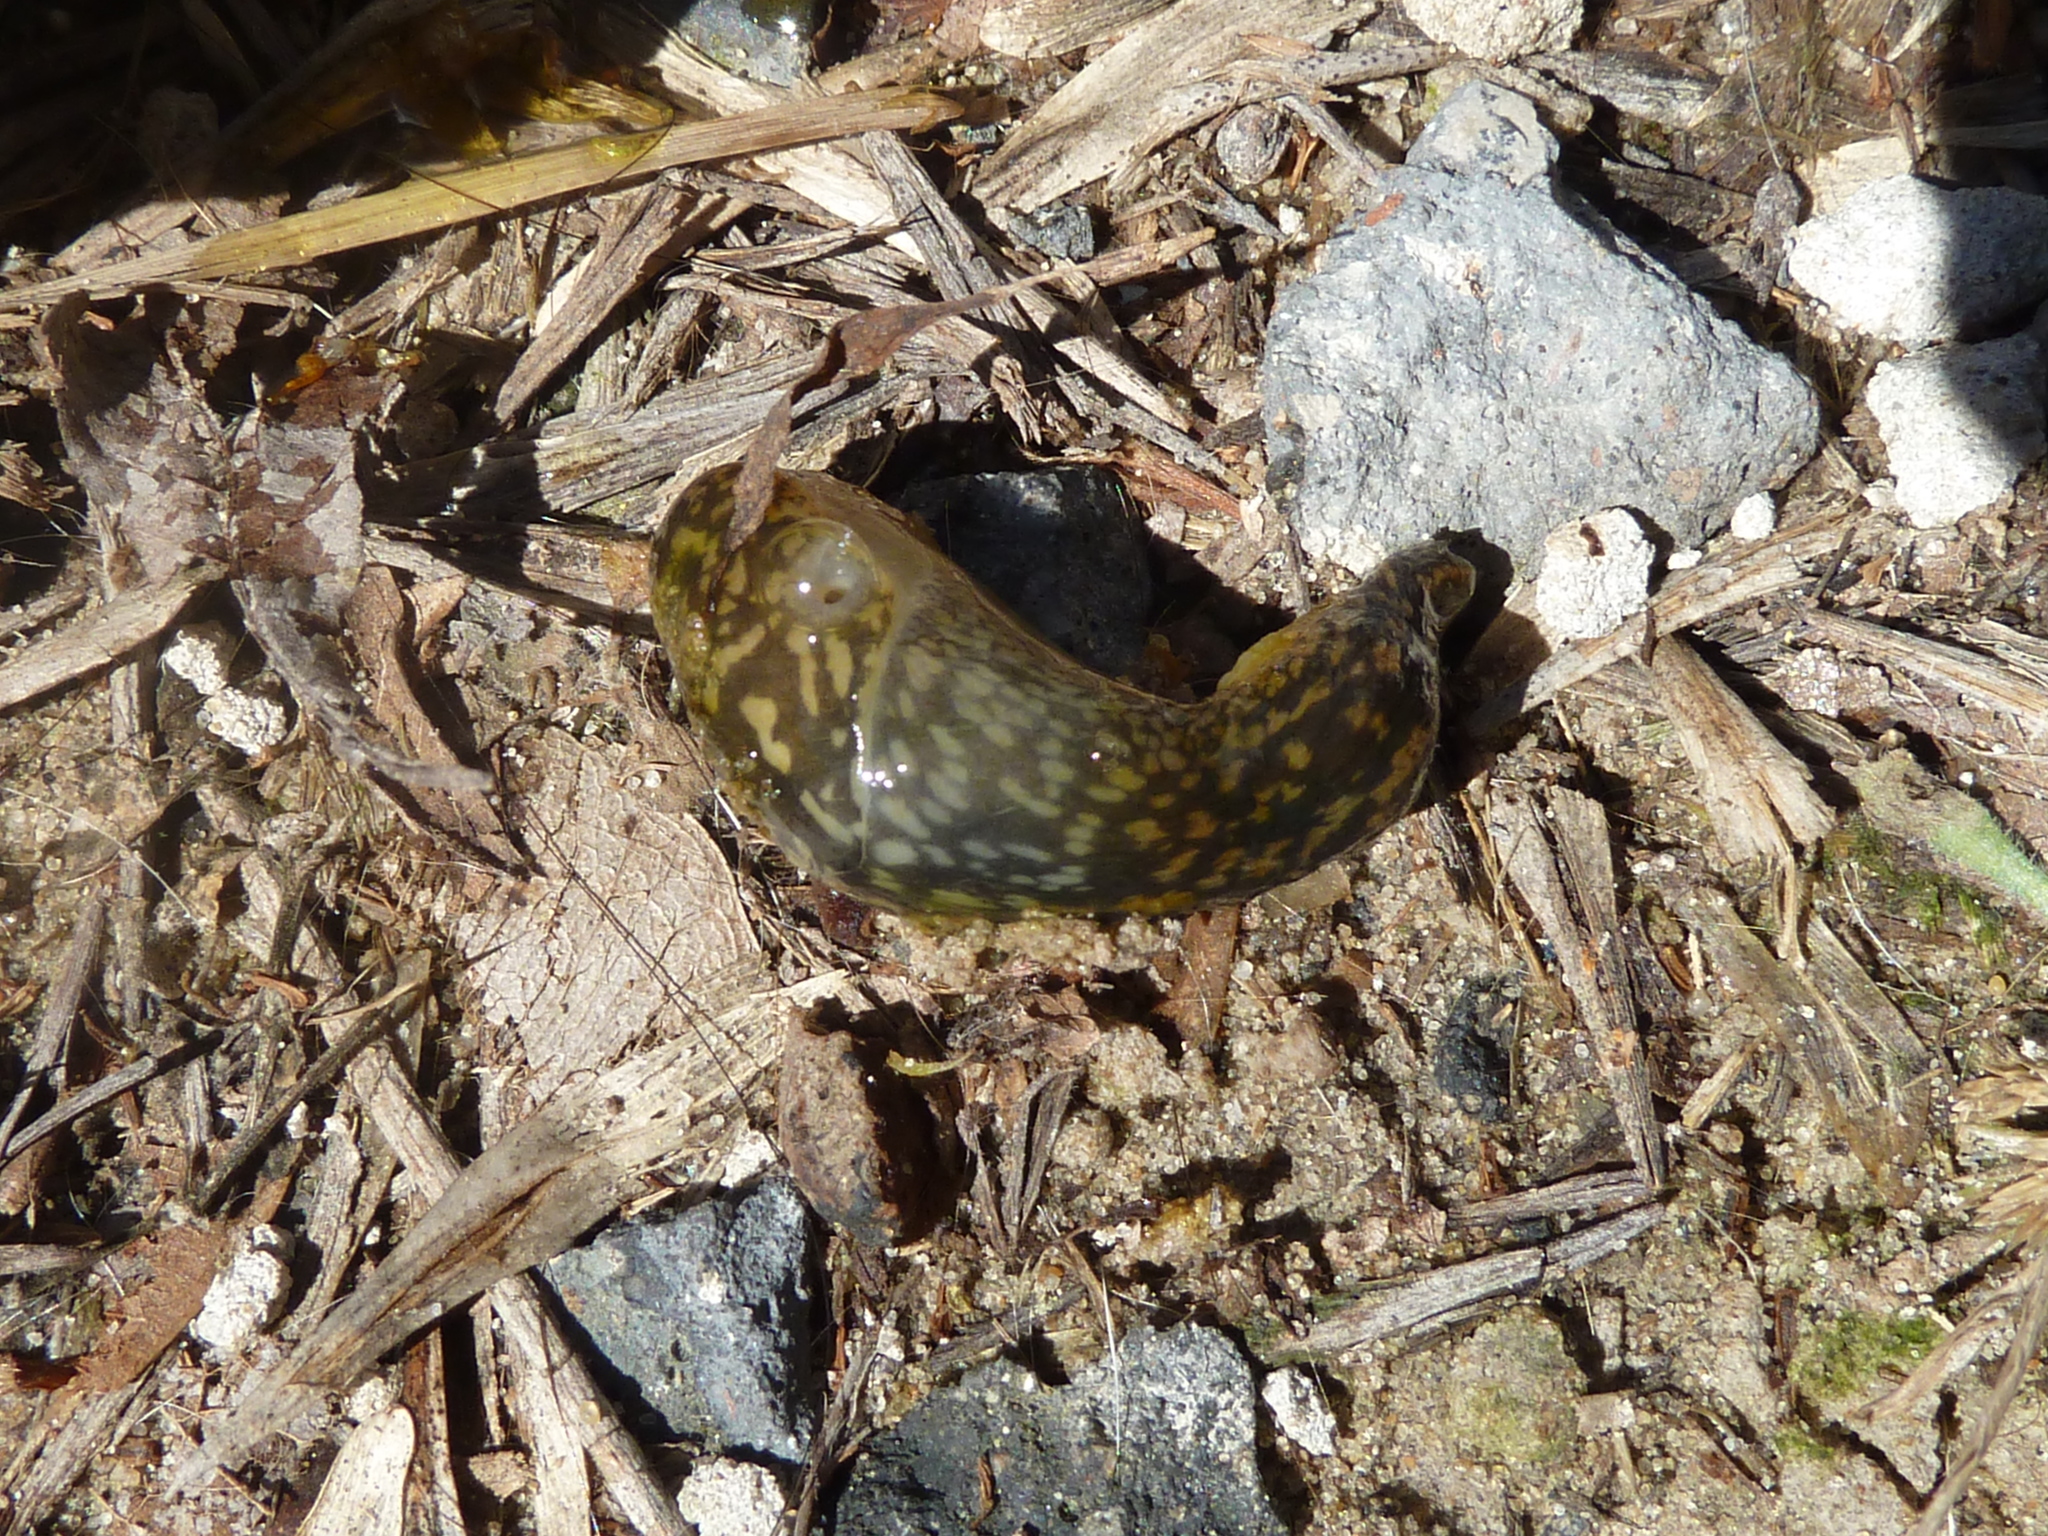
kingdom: Animalia
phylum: Mollusca
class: Gastropoda
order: Stylommatophora
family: Limacidae
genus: Limacus
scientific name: Limacus flavus
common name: Yellow gardenslug
